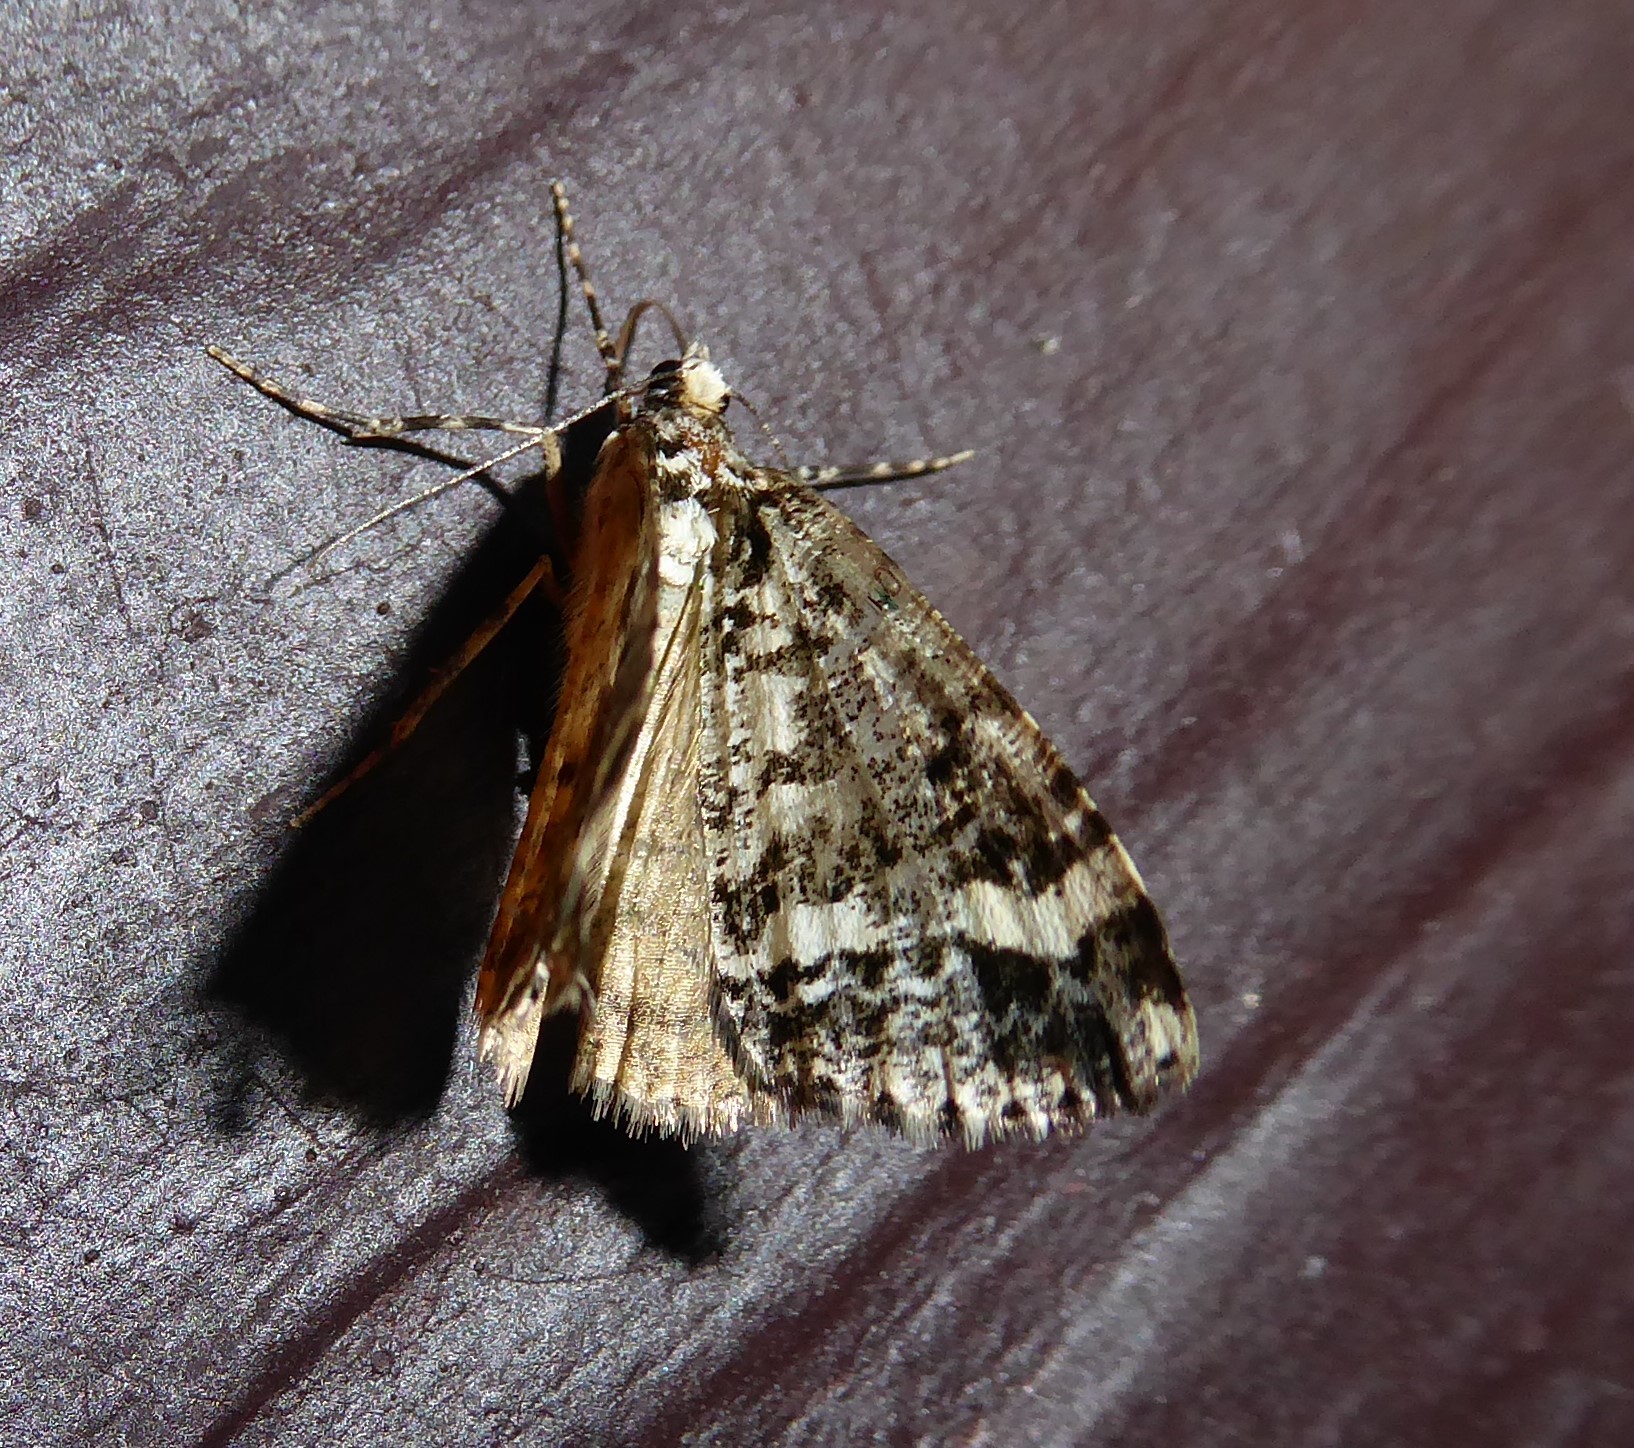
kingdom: Animalia
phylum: Arthropoda
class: Insecta
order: Lepidoptera
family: Geometridae
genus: Pseudocoremia
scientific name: Pseudocoremia leucelaea
